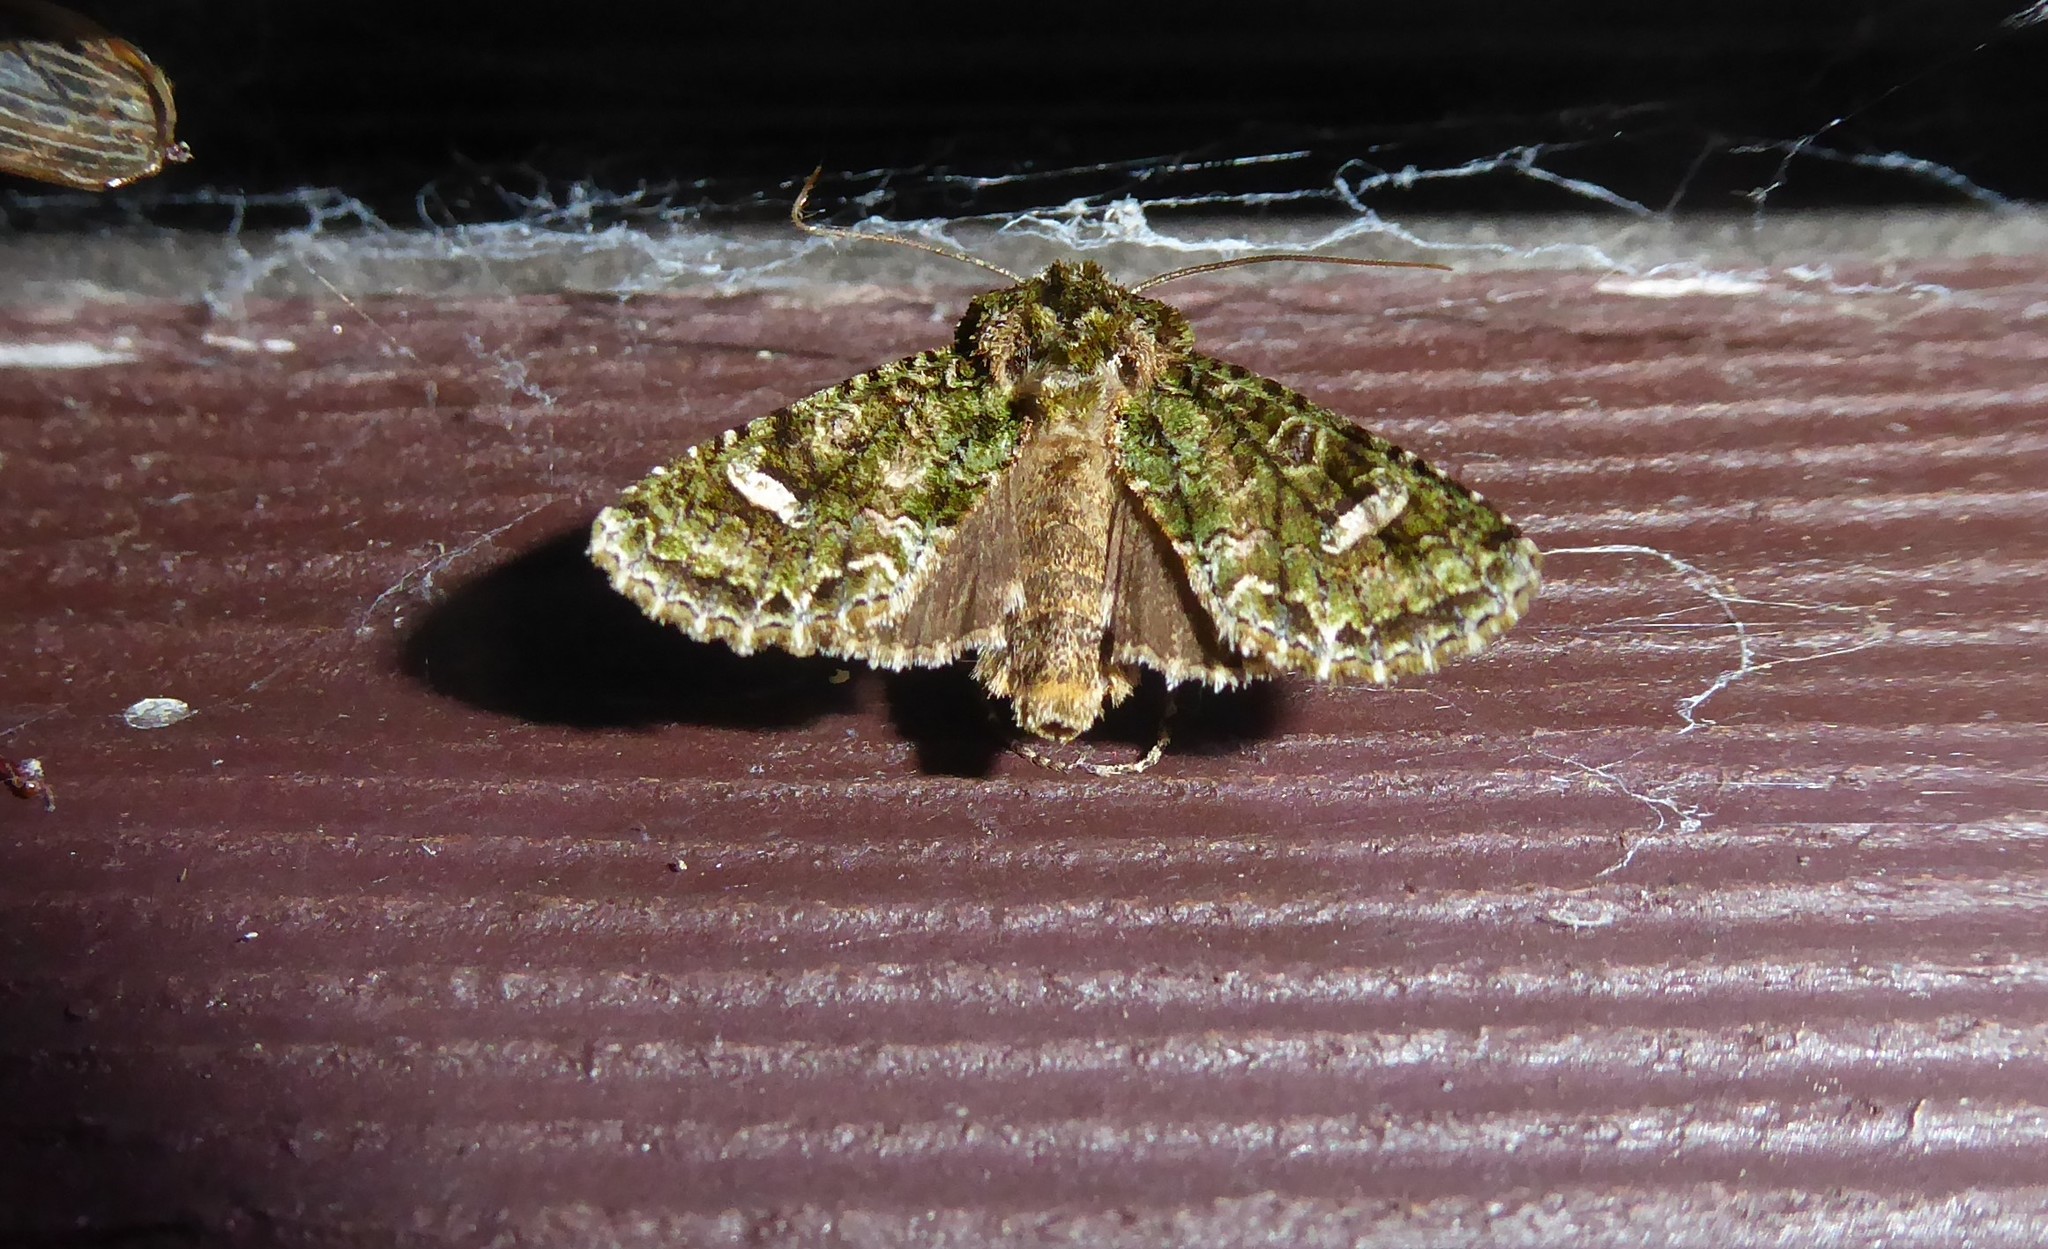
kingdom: Animalia
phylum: Arthropoda
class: Insecta
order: Lepidoptera
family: Noctuidae
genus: Ichneutica
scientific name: Ichneutica
